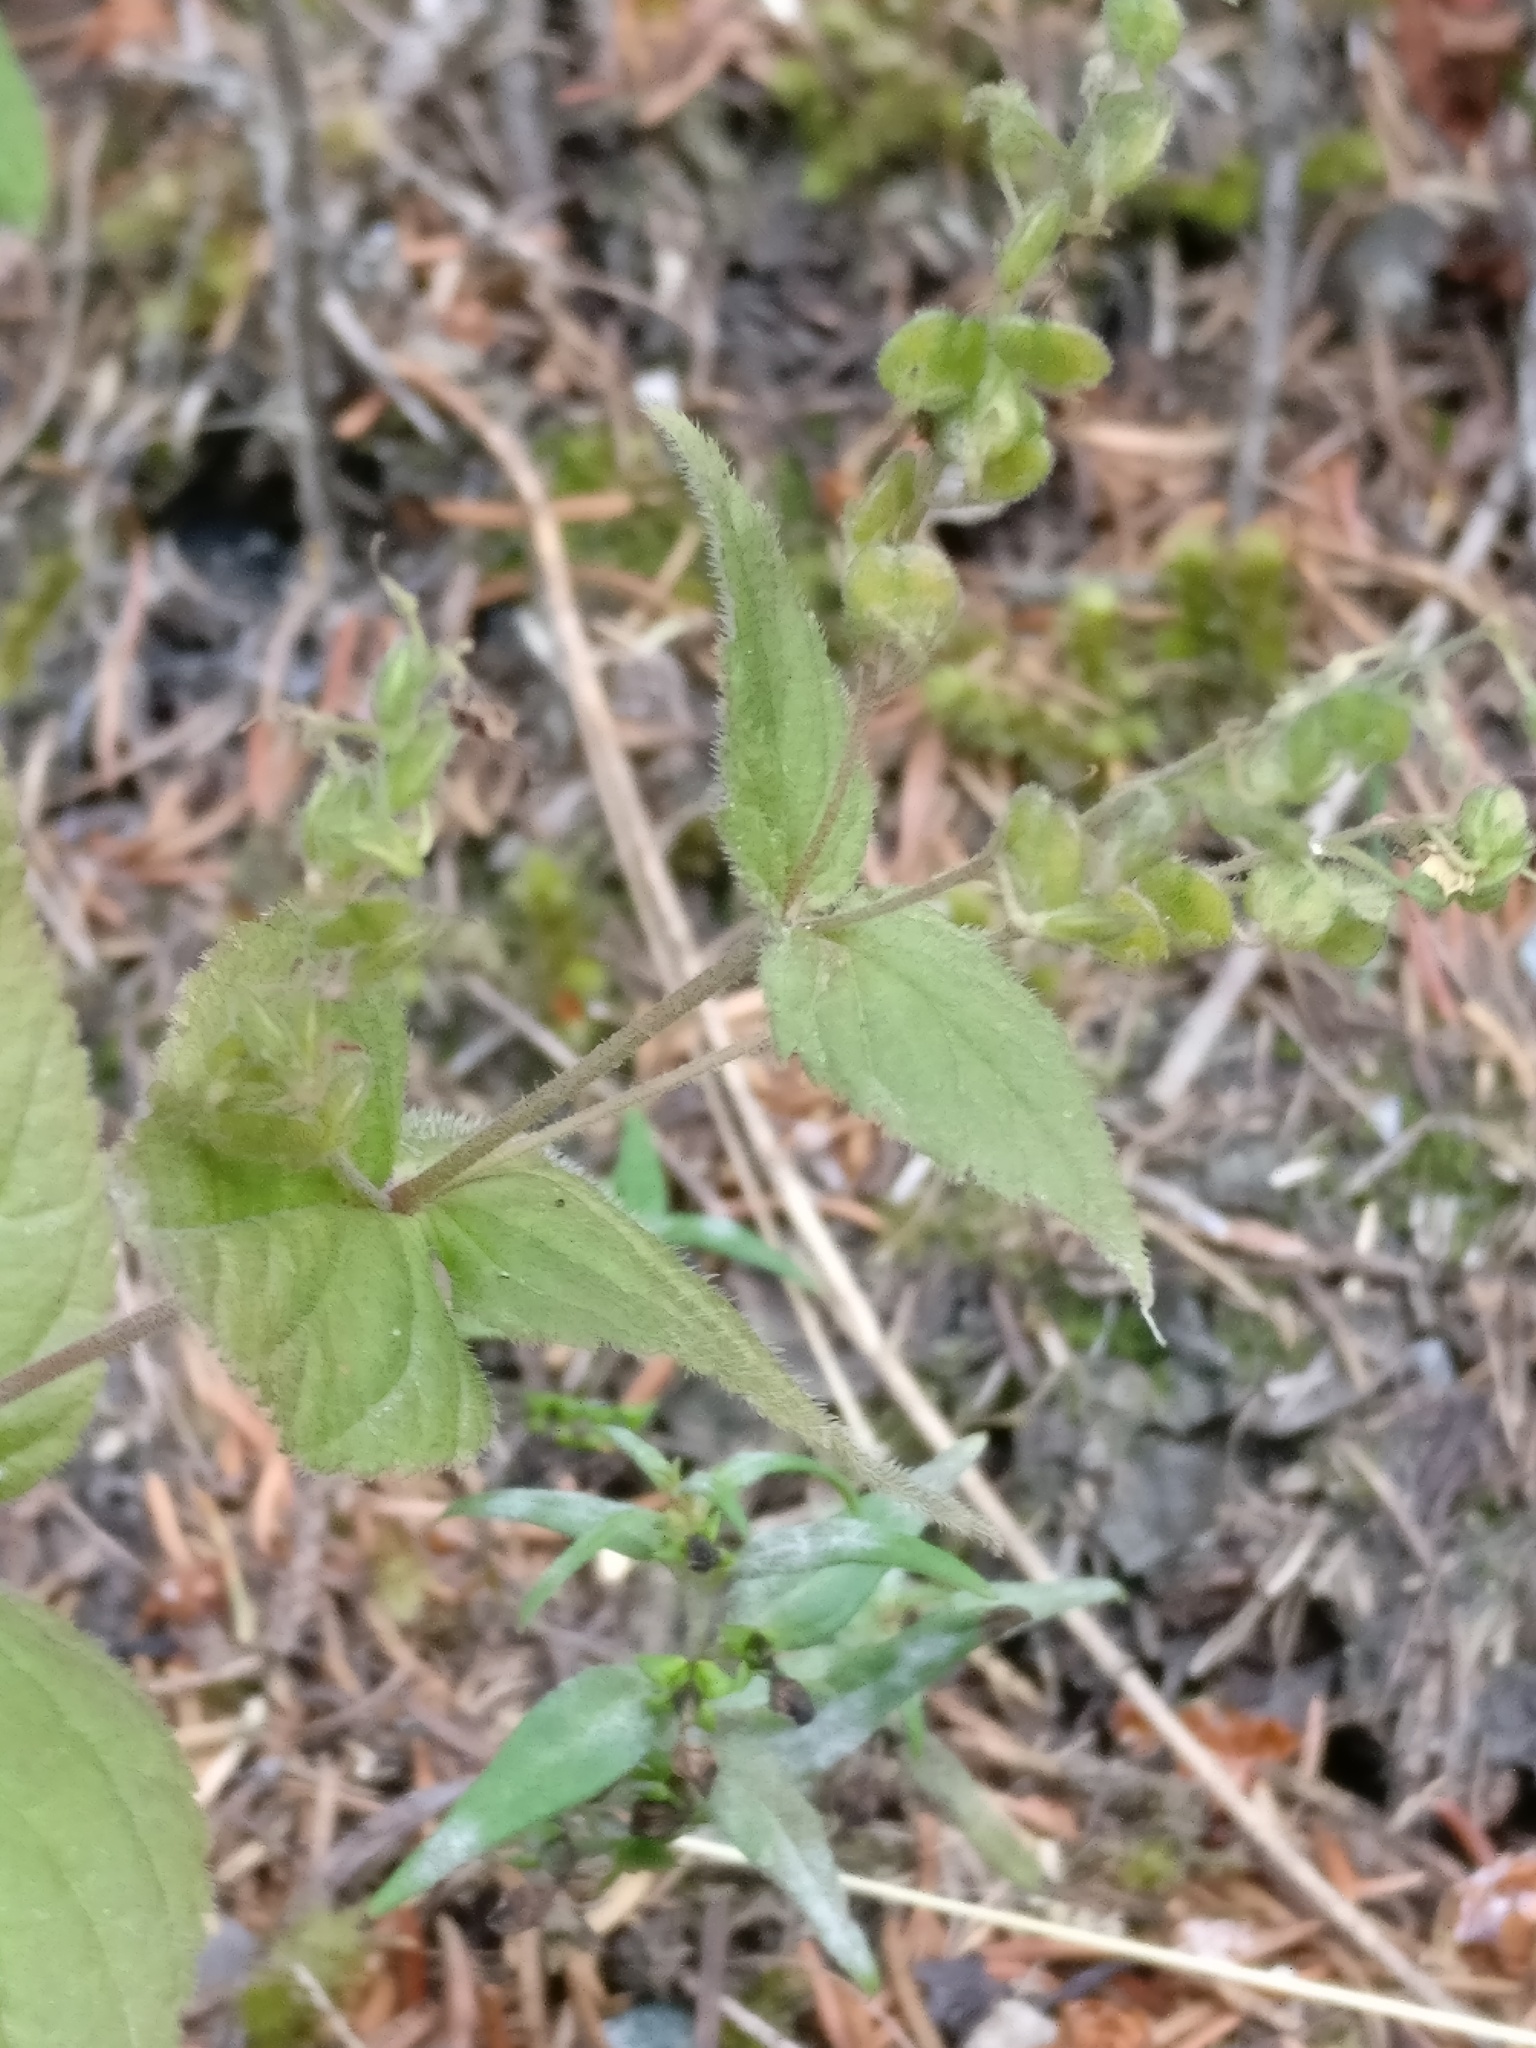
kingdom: Plantae
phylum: Tracheophyta
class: Magnoliopsida
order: Lamiales
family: Plantaginaceae
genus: Veronica
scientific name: Veronica urticifolia
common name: Nettle-leaf speedwell
